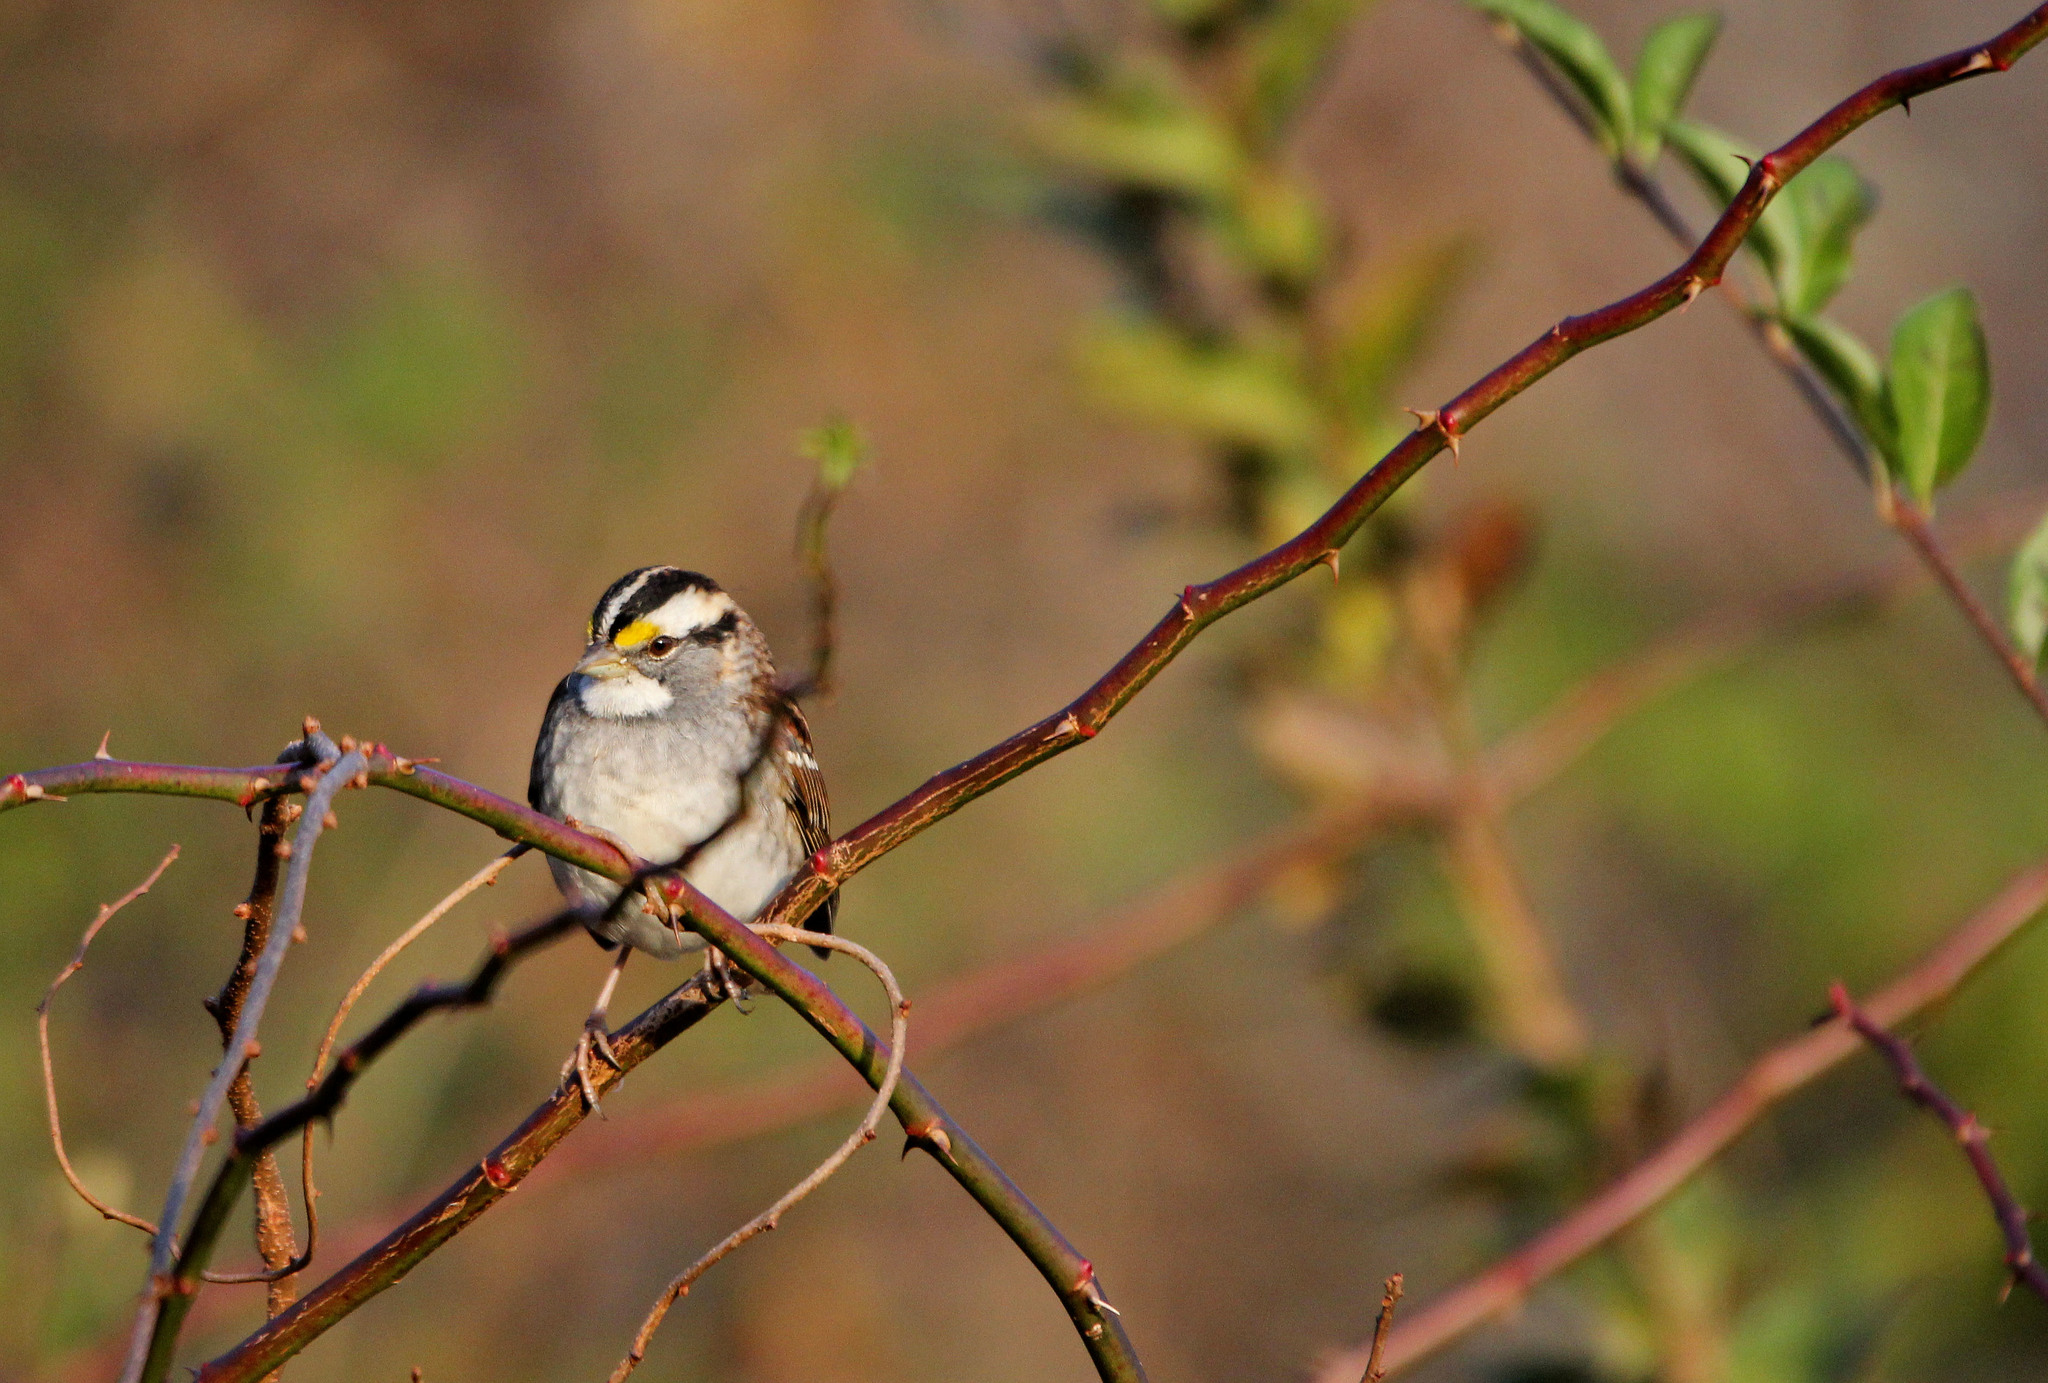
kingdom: Animalia
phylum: Chordata
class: Aves
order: Passeriformes
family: Passerellidae
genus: Zonotrichia
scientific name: Zonotrichia albicollis
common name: White-throated sparrow
